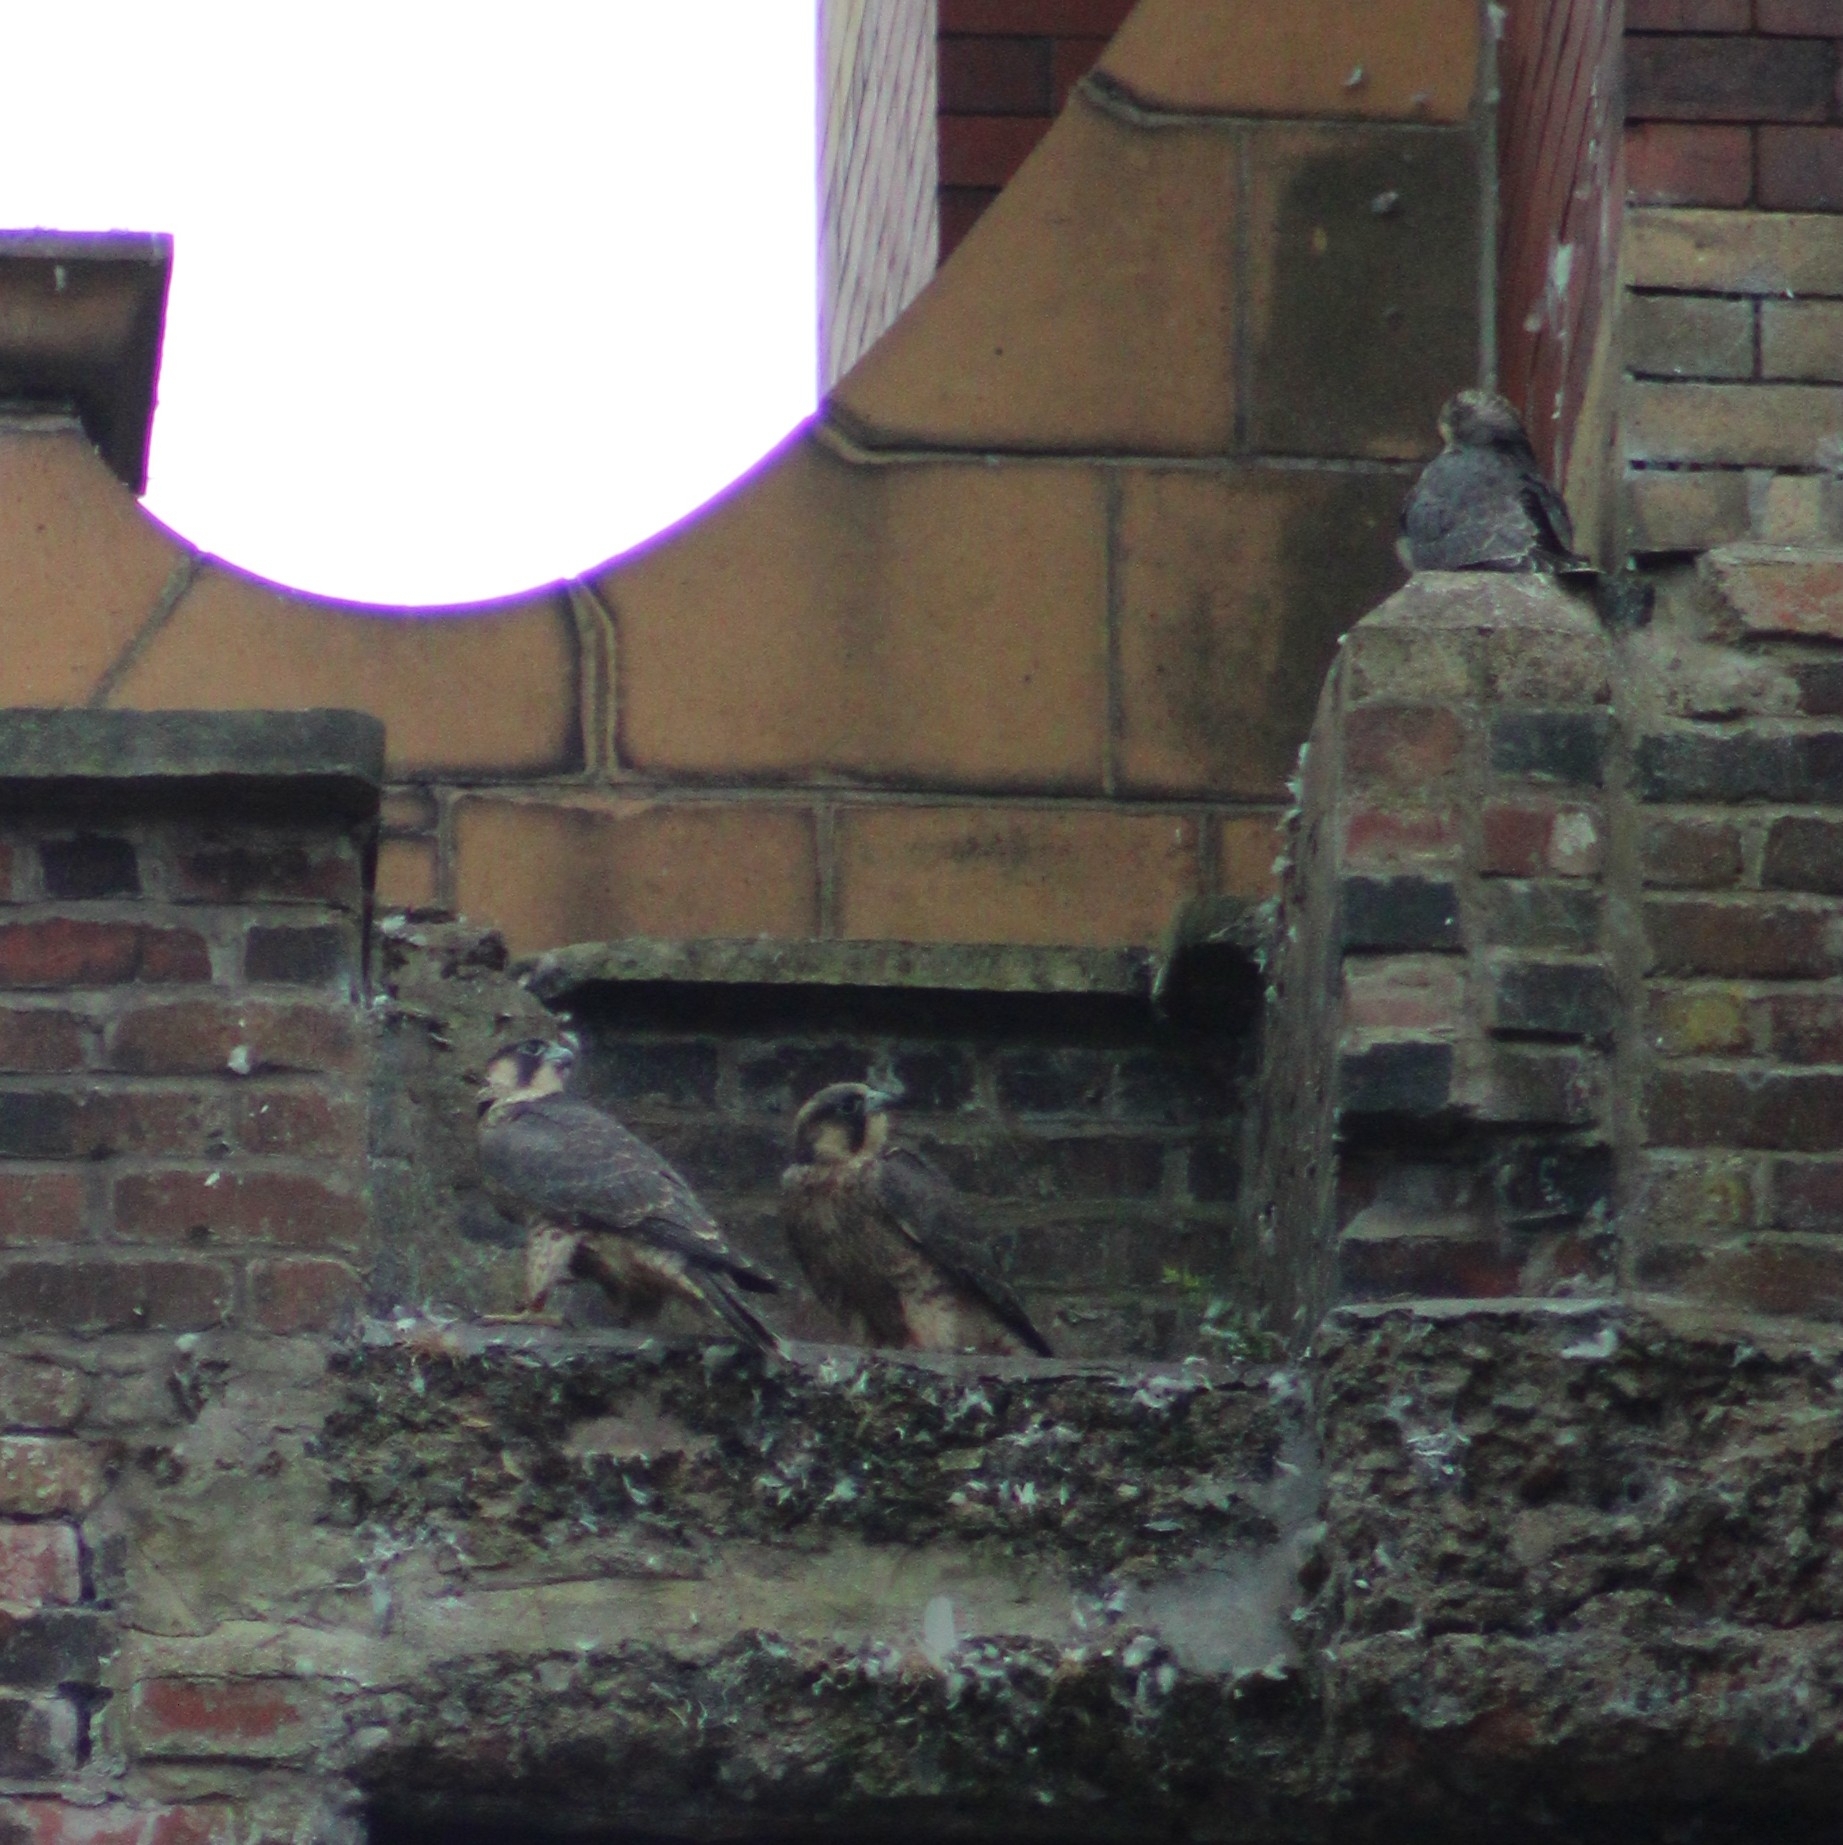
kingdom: Animalia
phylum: Chordata
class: Aves
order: Falconiformes
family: Falconidae
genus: Falco
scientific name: Falco peregrinus
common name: Peregrine falcon
